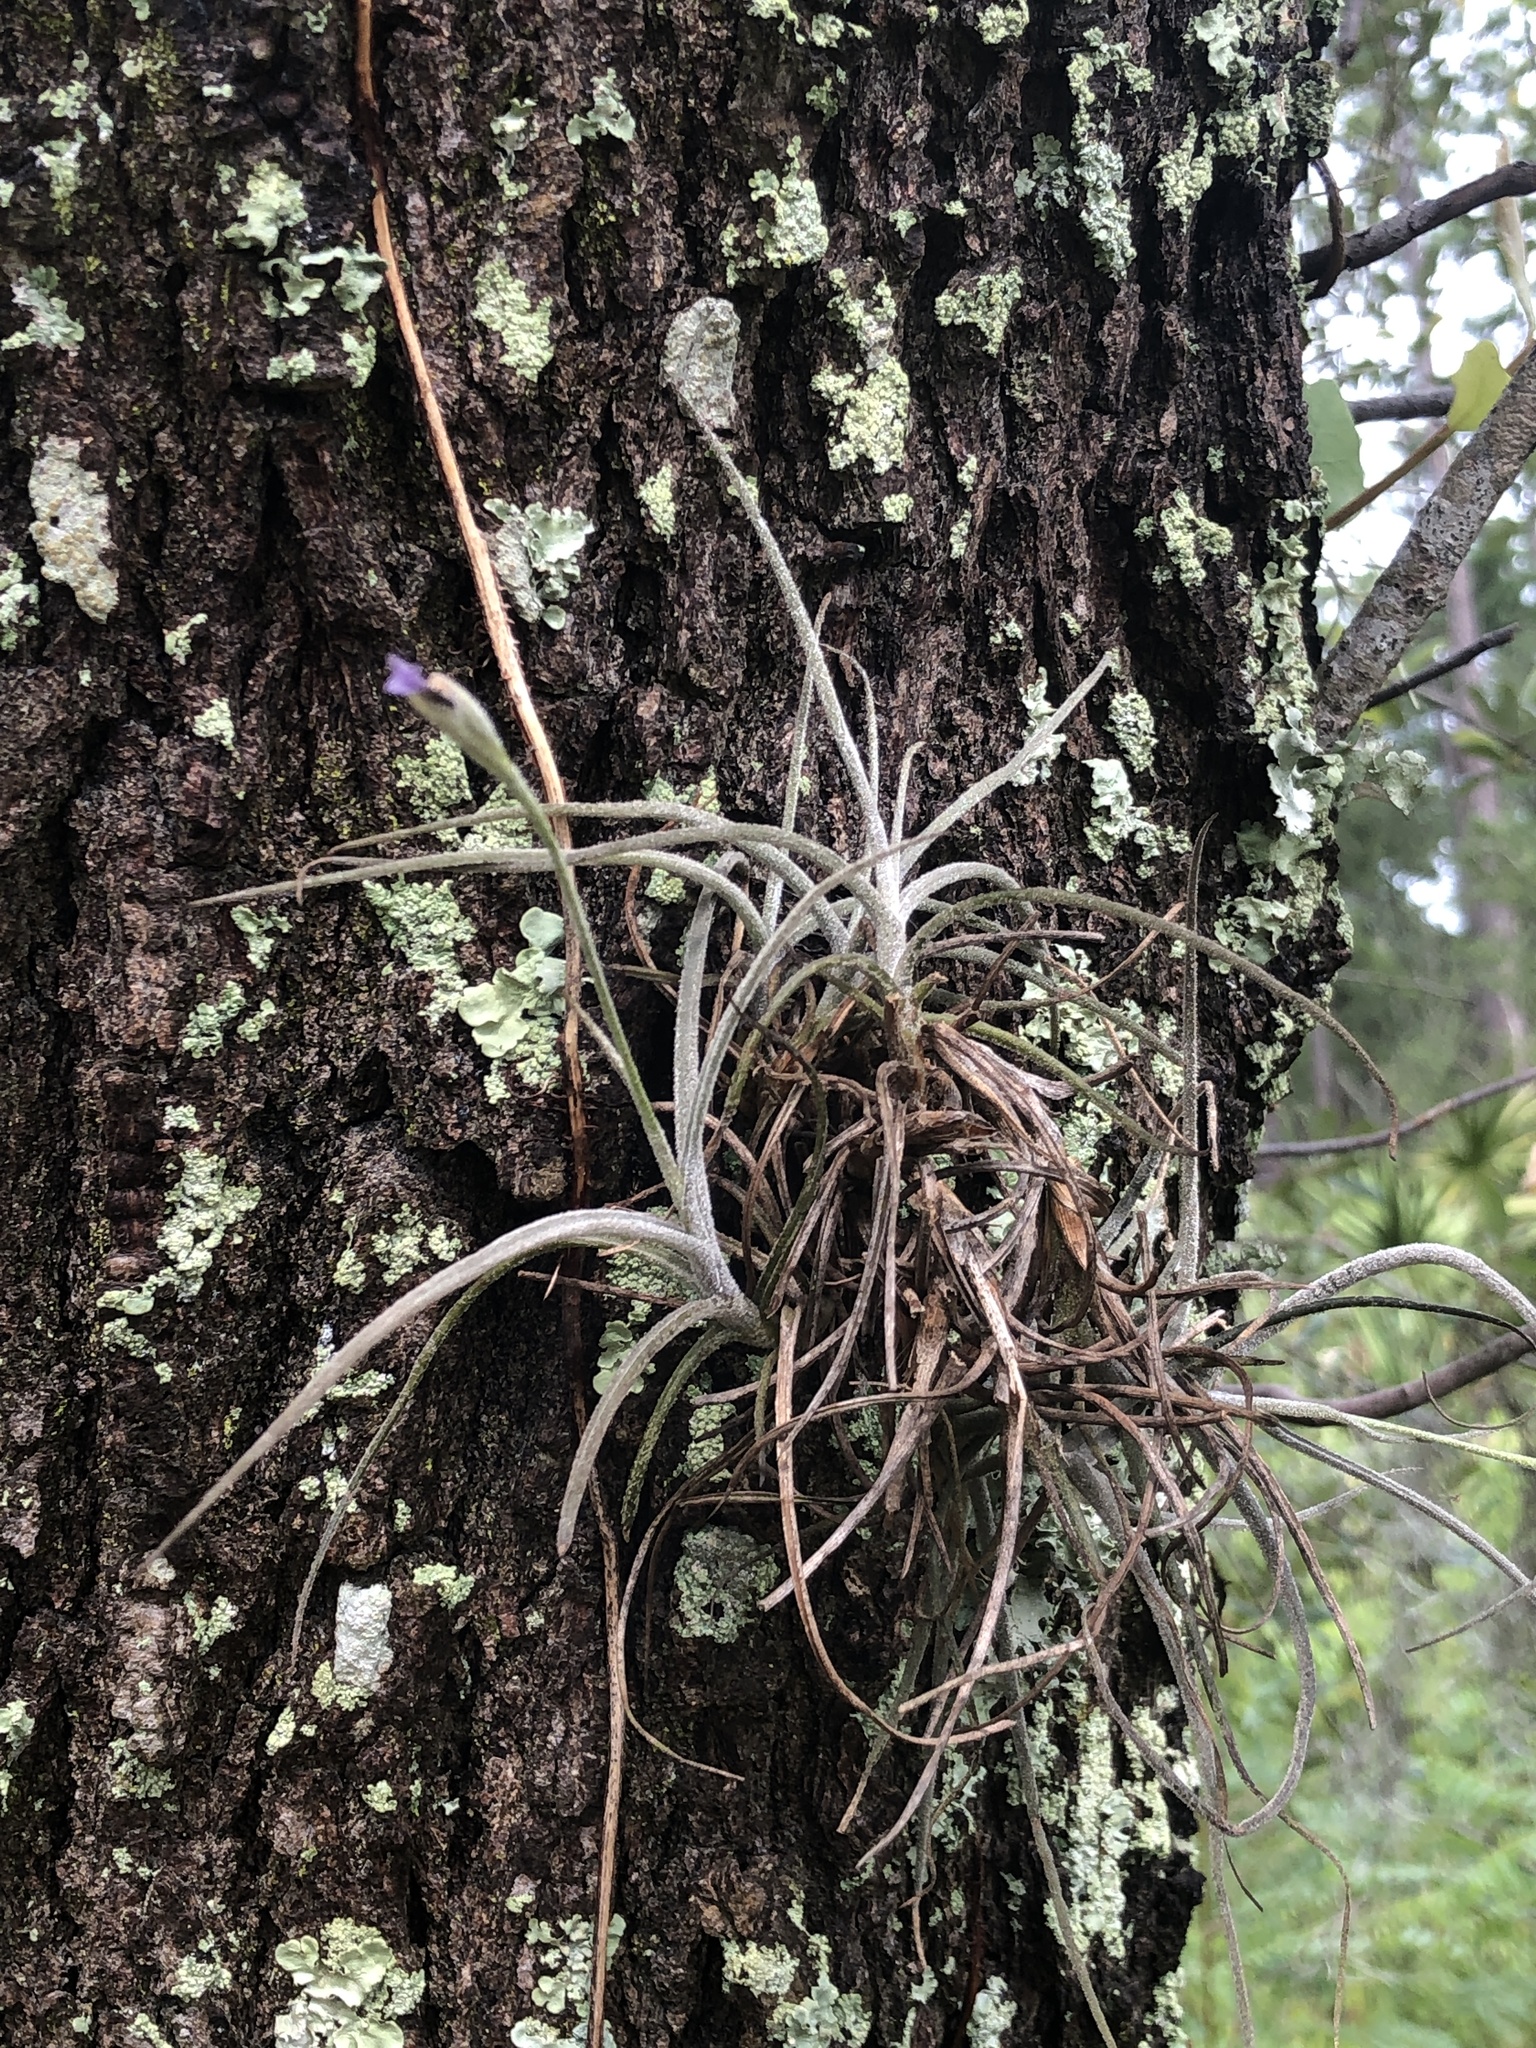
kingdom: Plantae
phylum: Tracheophyta
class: Liliopsida
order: Poales
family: Bromeliaceae
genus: Tillandsia
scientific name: Tillandsia recurvata
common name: Small ballmoss
